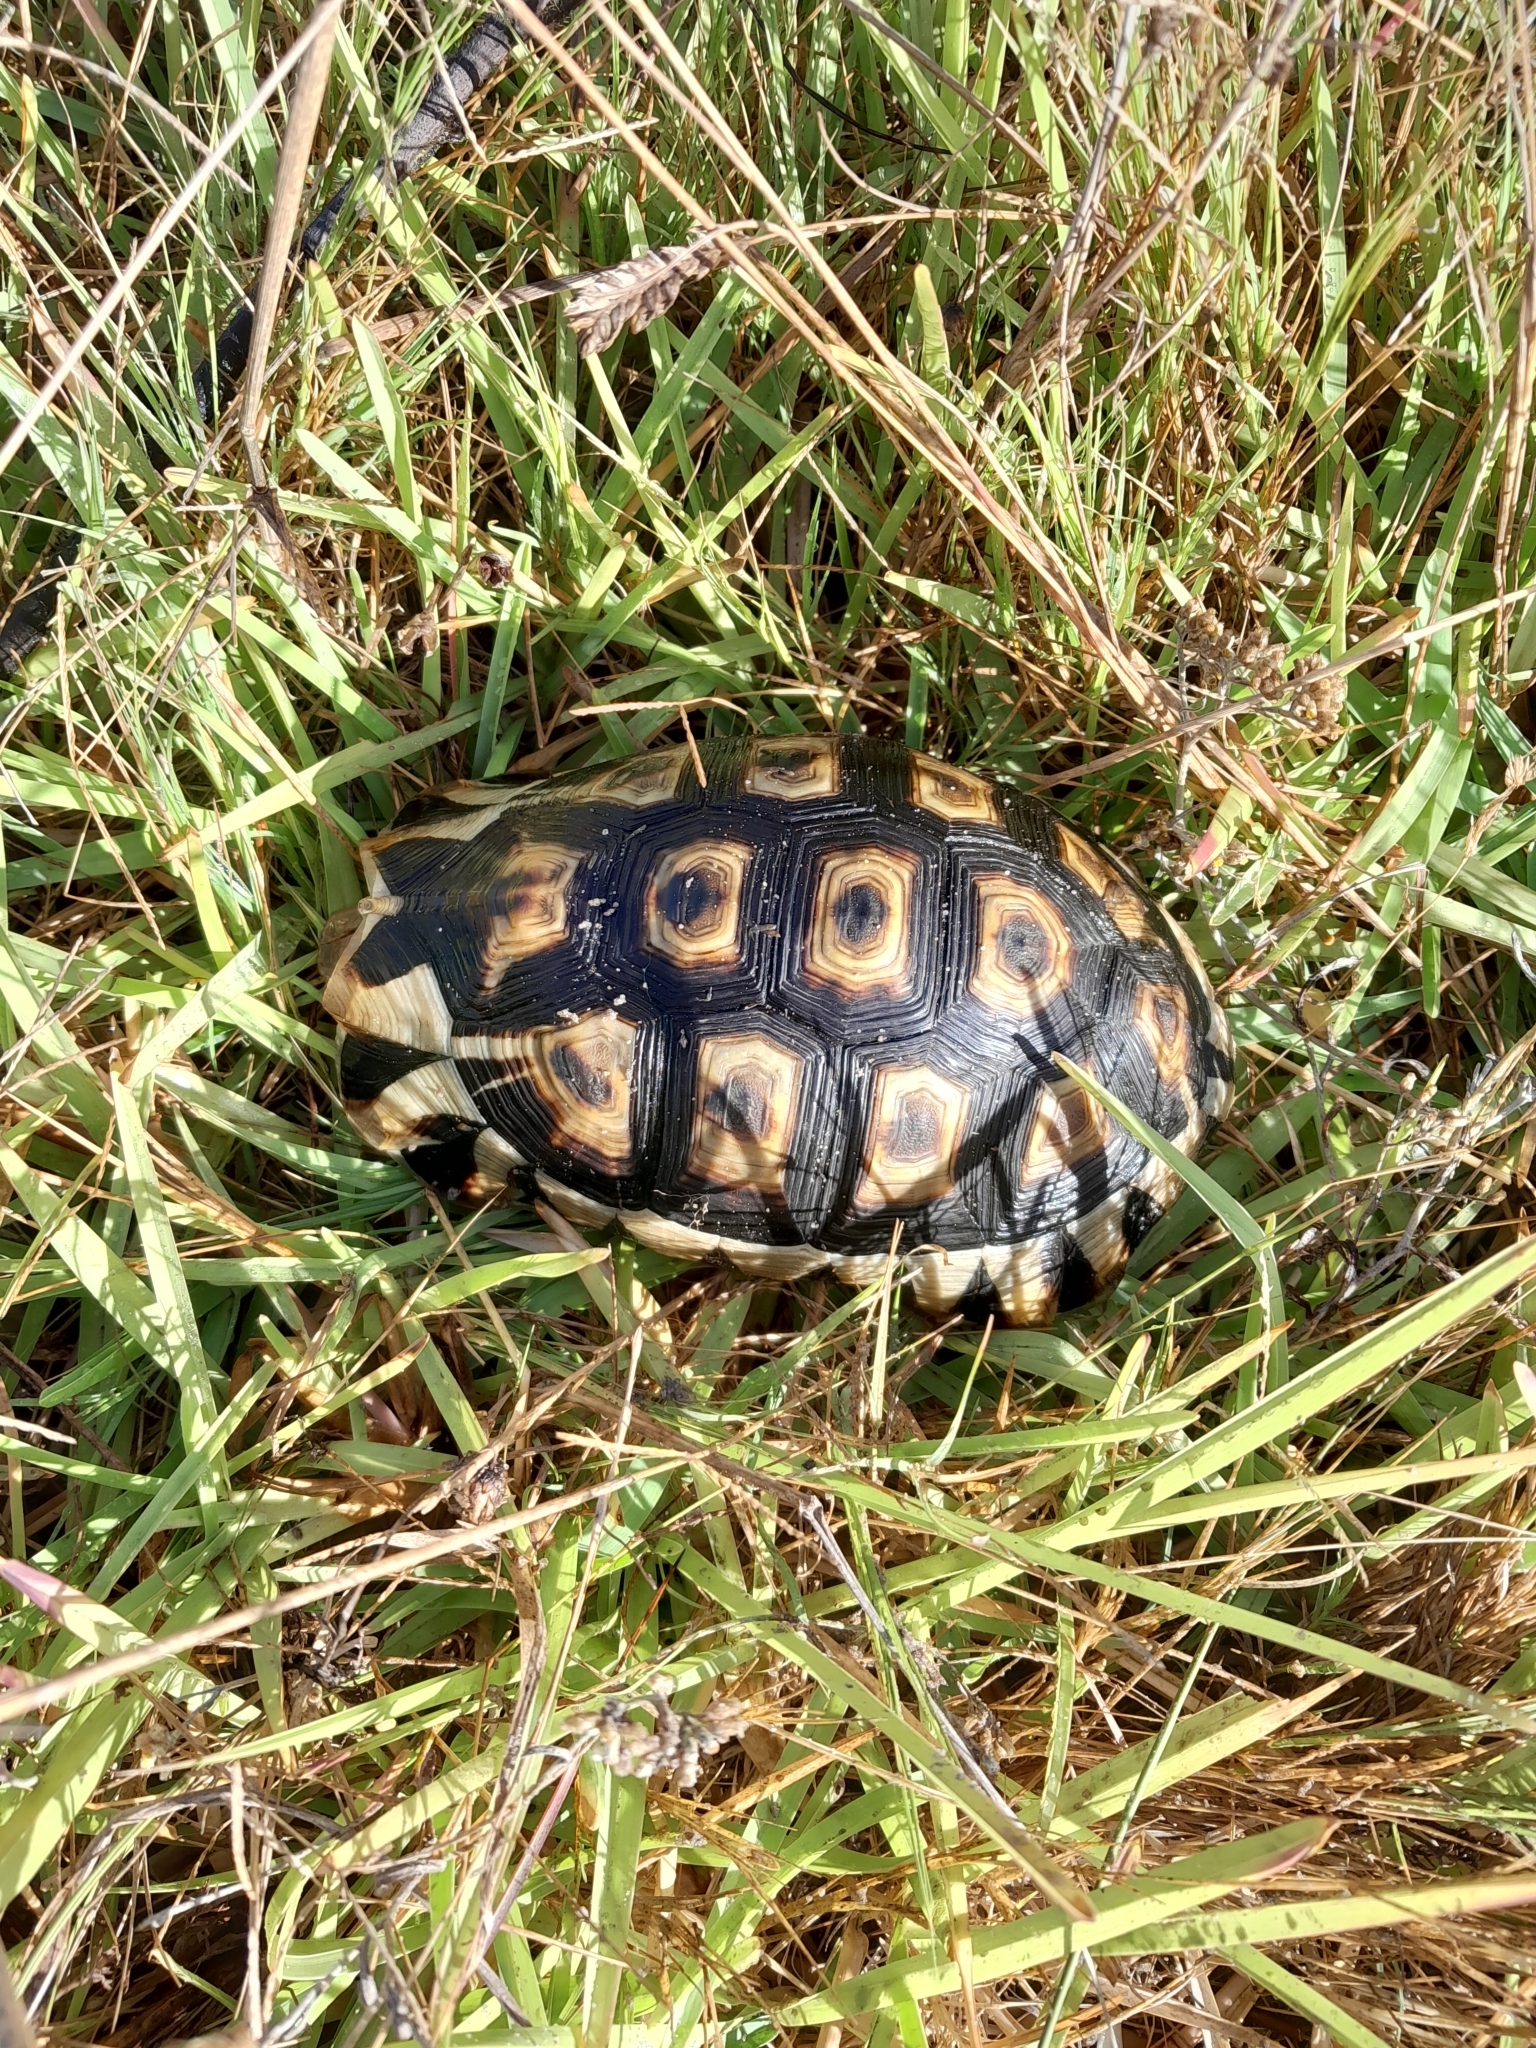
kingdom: Animalia
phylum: Chordata
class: Testudines
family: Testudinidae
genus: Chersina
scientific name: Chersina angulata
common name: South african bowsprit tortoise
